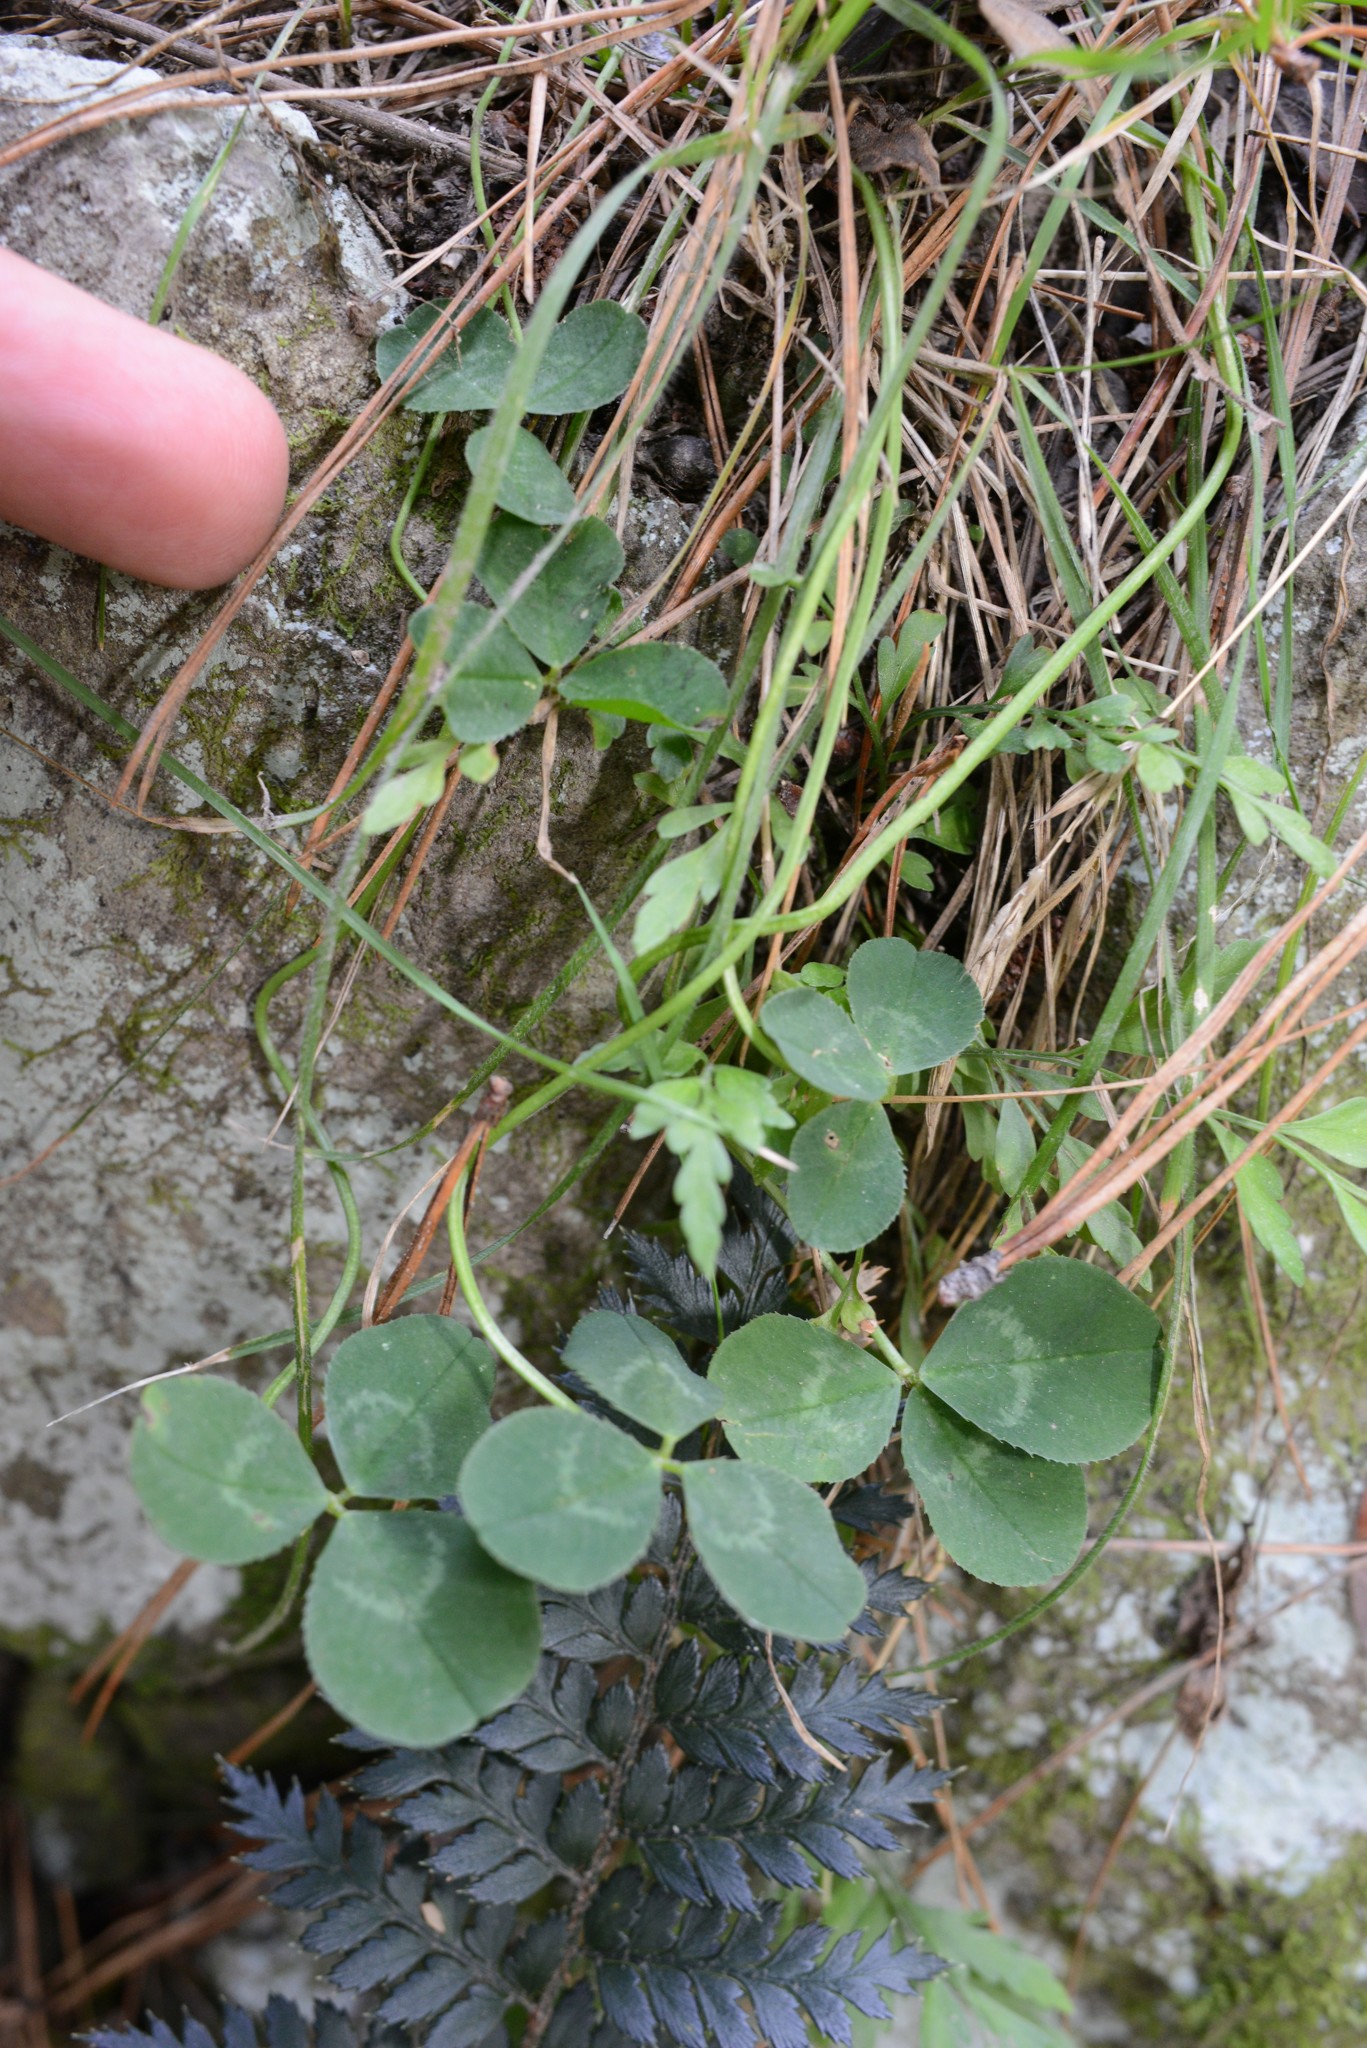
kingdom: Plantae
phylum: Tracheophyta
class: Magnoliopsida
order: Fabales
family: Fabaceae
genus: Trifolium
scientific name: Trifolium repens
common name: White clover
